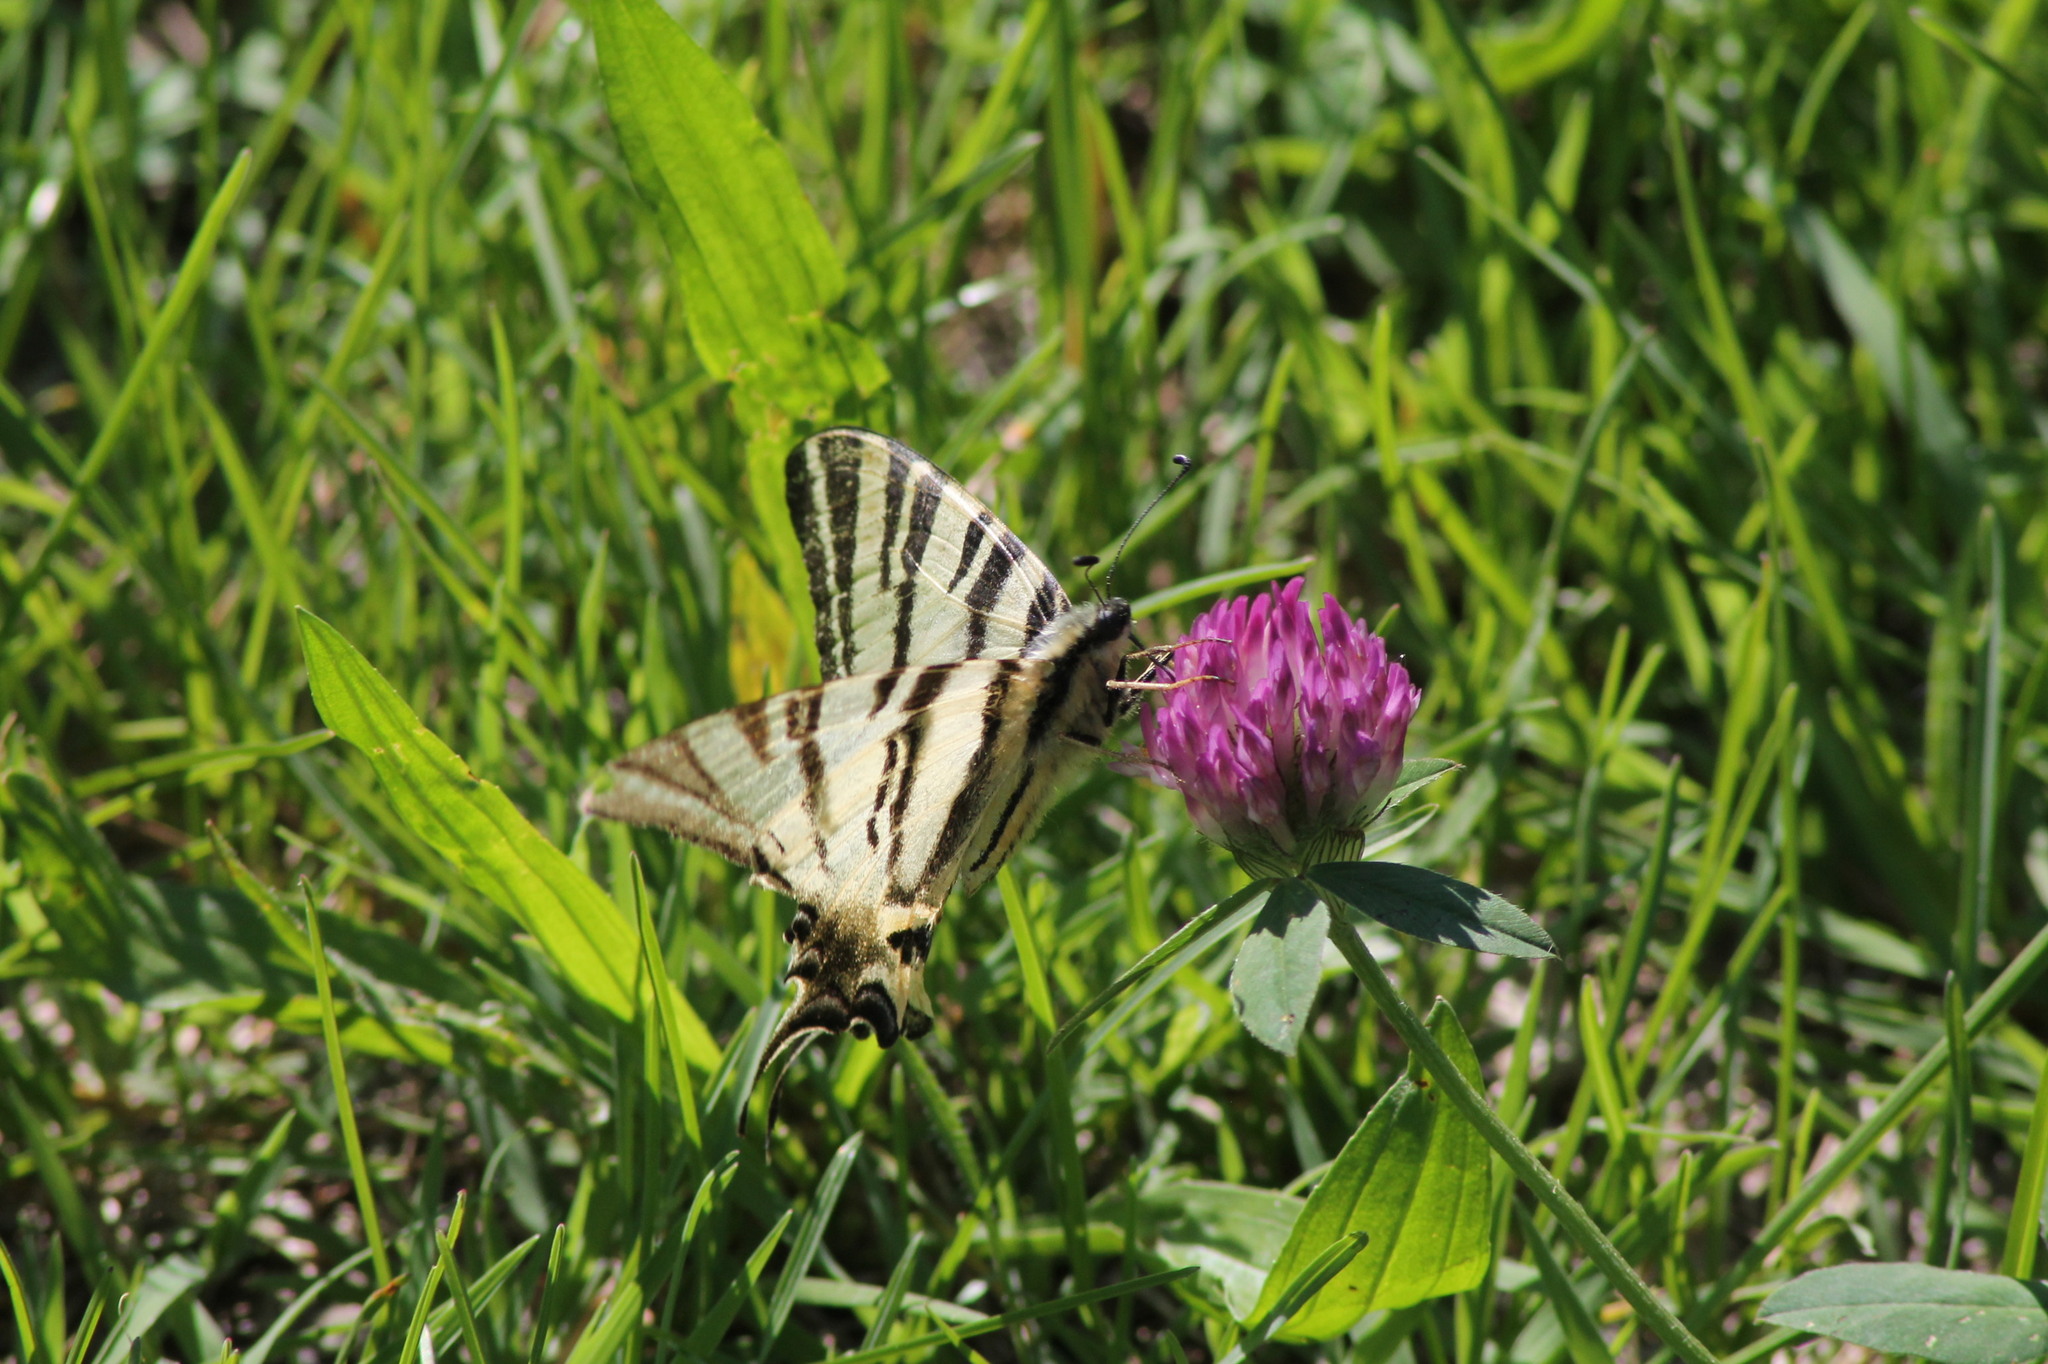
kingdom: Animalia
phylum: Arthropoda
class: Insecta
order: Lepidoptera
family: Papilionidae
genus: Iphiclides
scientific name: Iphiclides podalirius
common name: Scarce swallowtail
